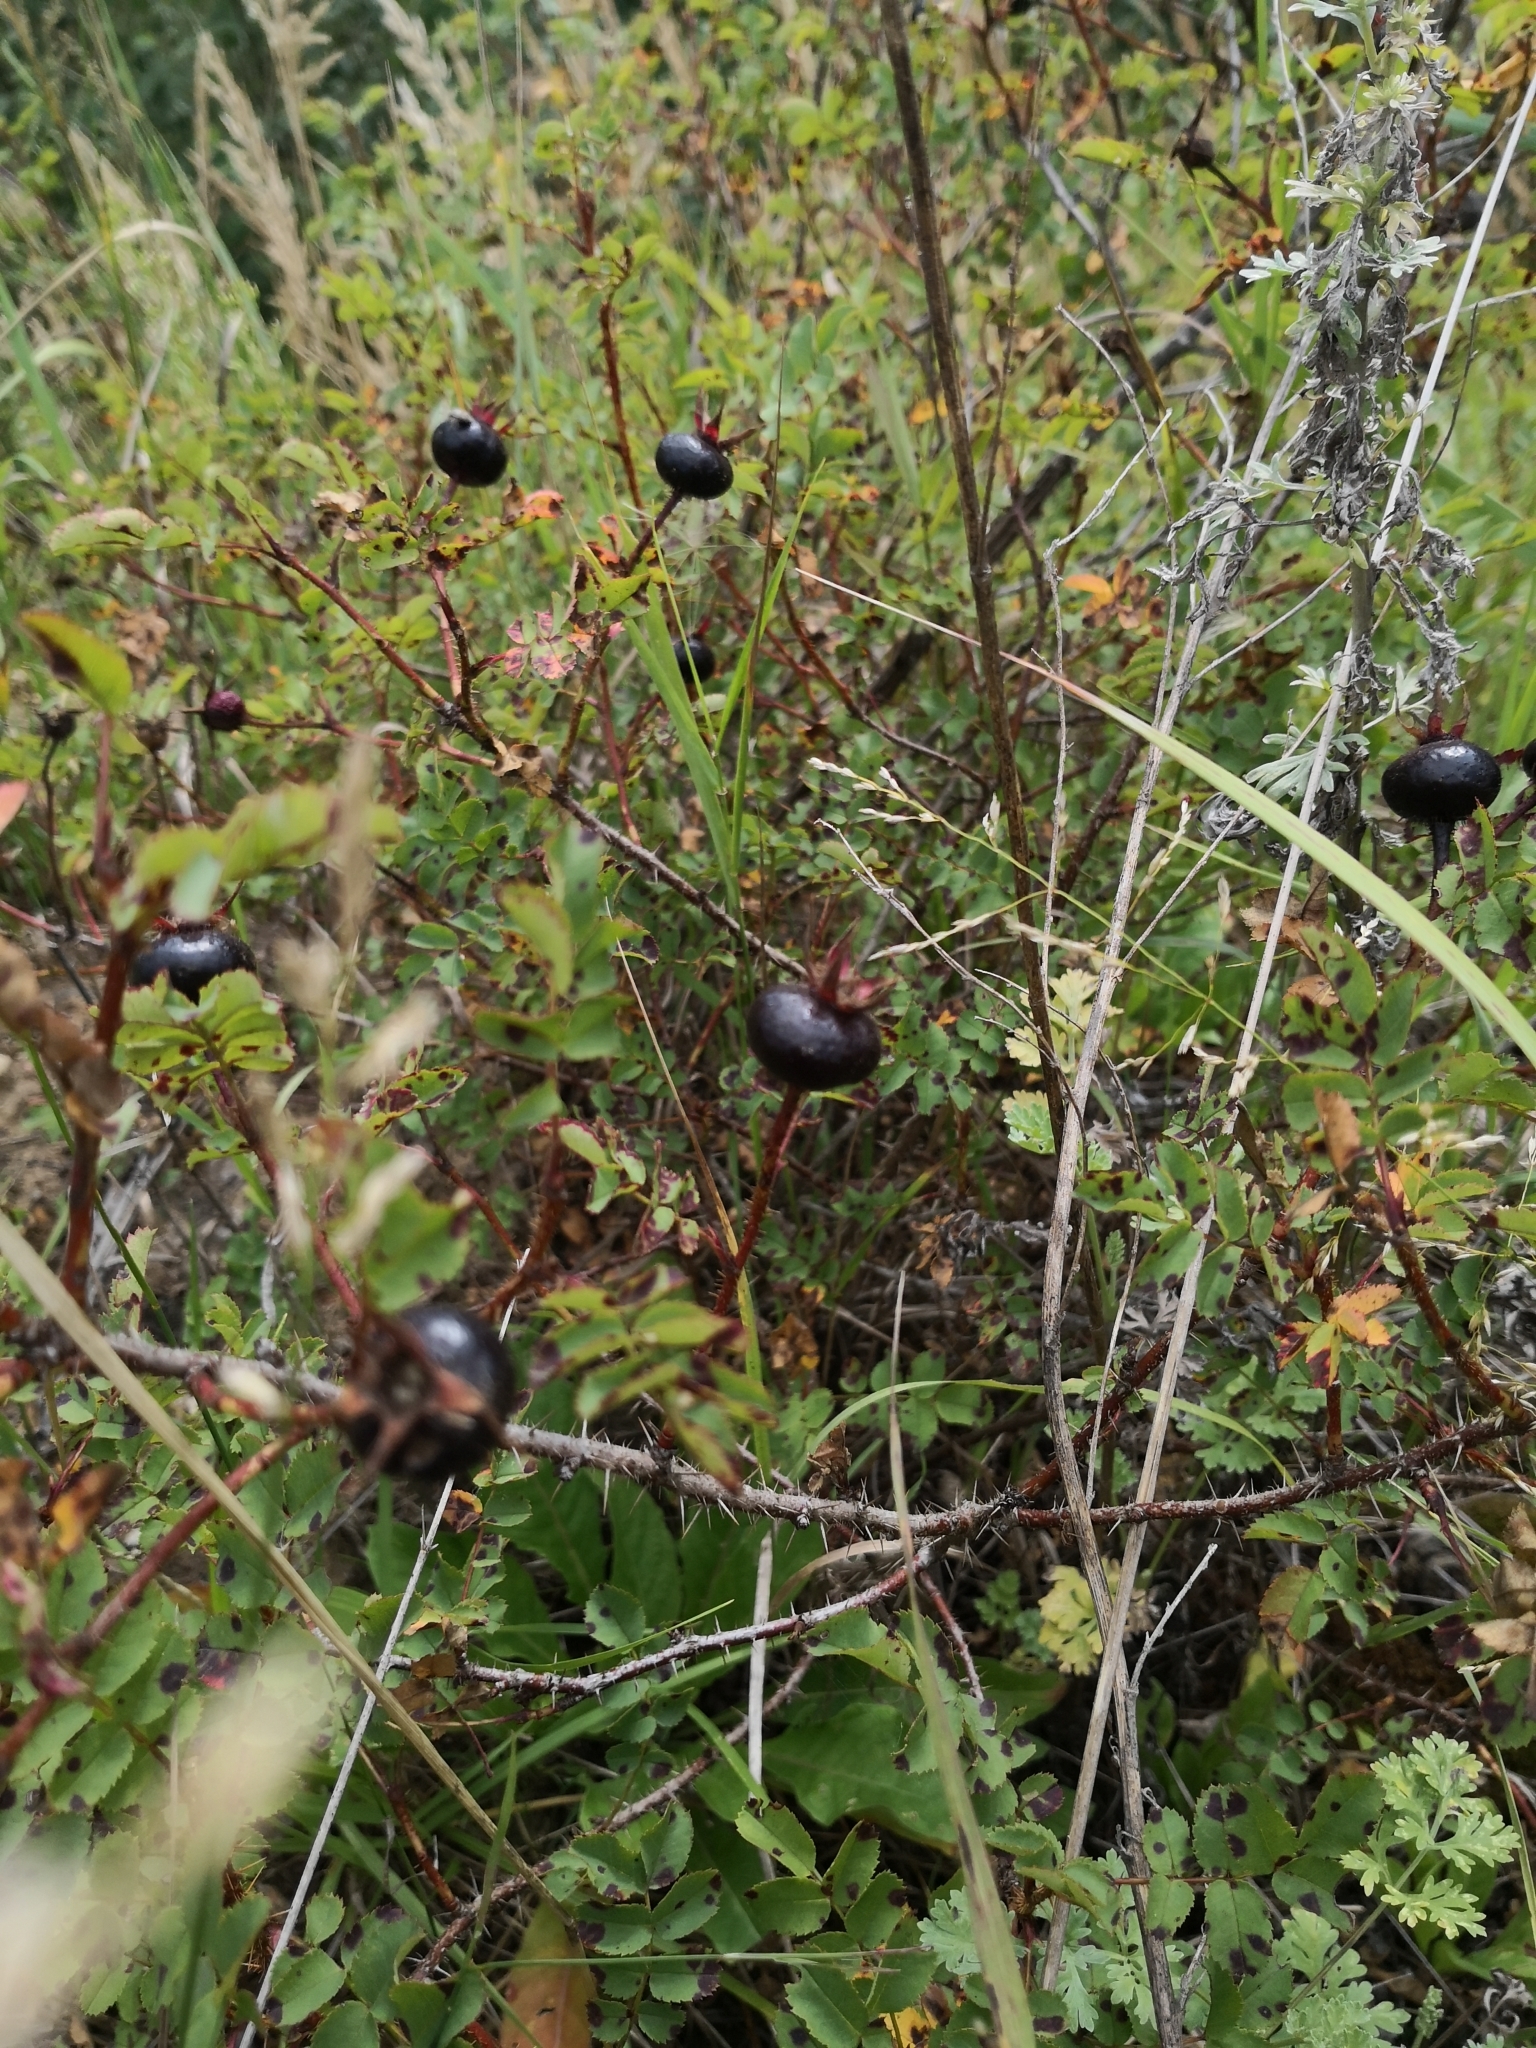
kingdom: Plantae
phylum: Tracheophyta
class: Magnoliopsida
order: Rosales
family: Rosaceae
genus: Rosa
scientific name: Rosa spinosissima
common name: Burnet rose
